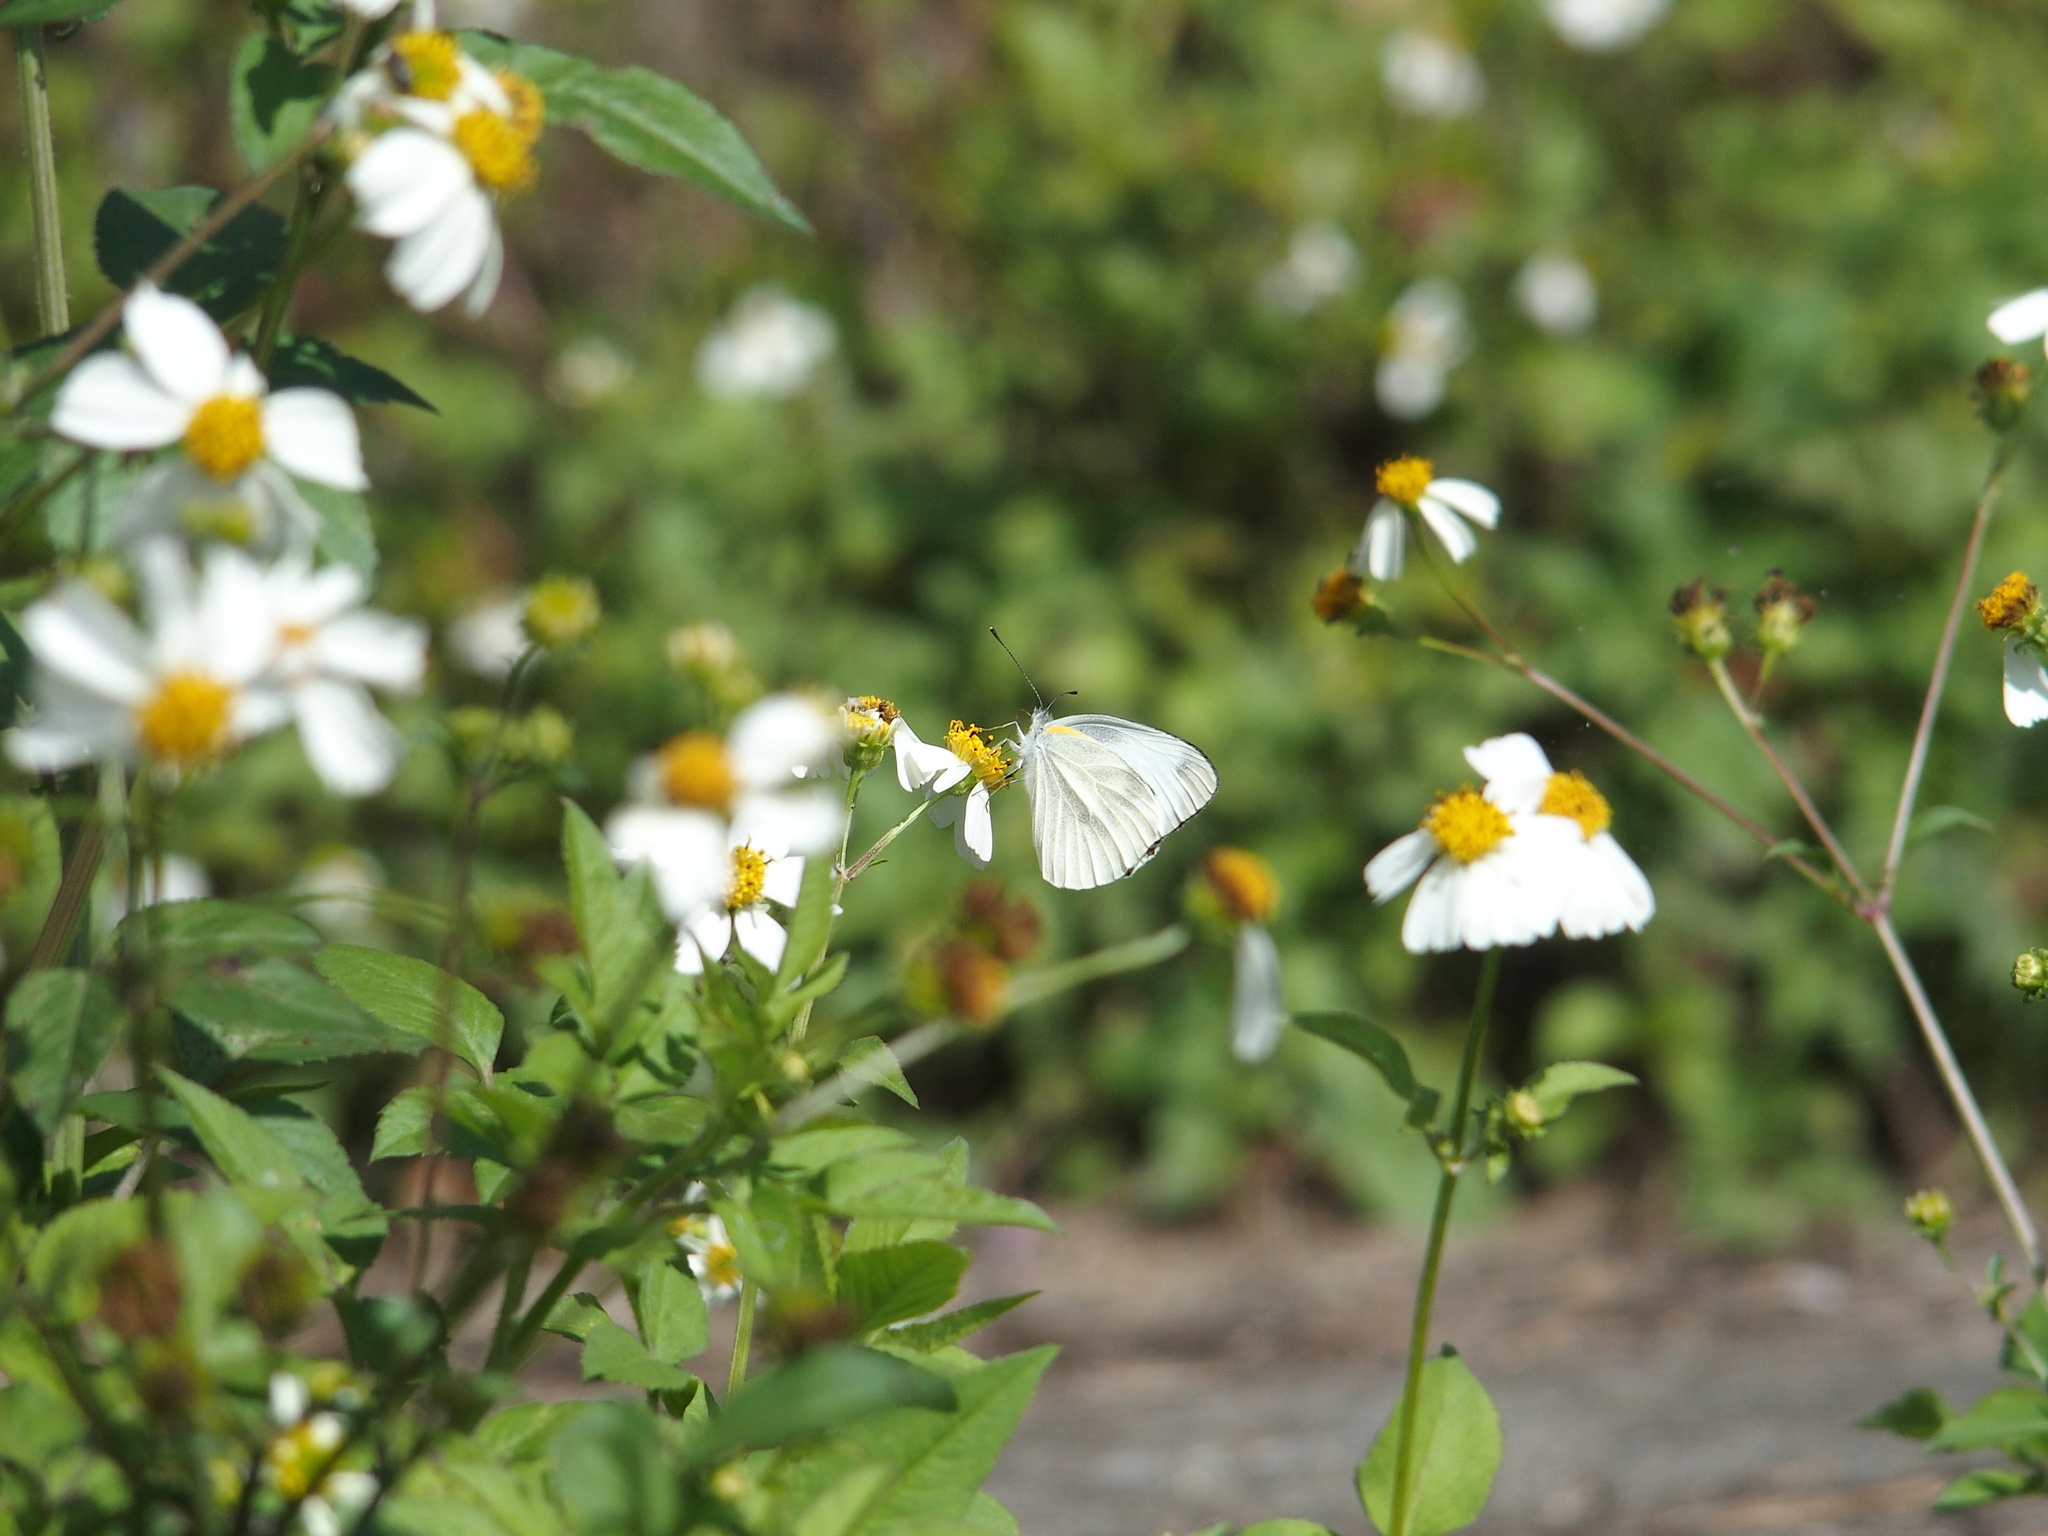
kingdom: Animalia
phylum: Arthropoda
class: Insecta
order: Lepidoptera
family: Pieridae
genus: Pieris
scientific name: Pieris canidia
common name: Indian cabbage white
